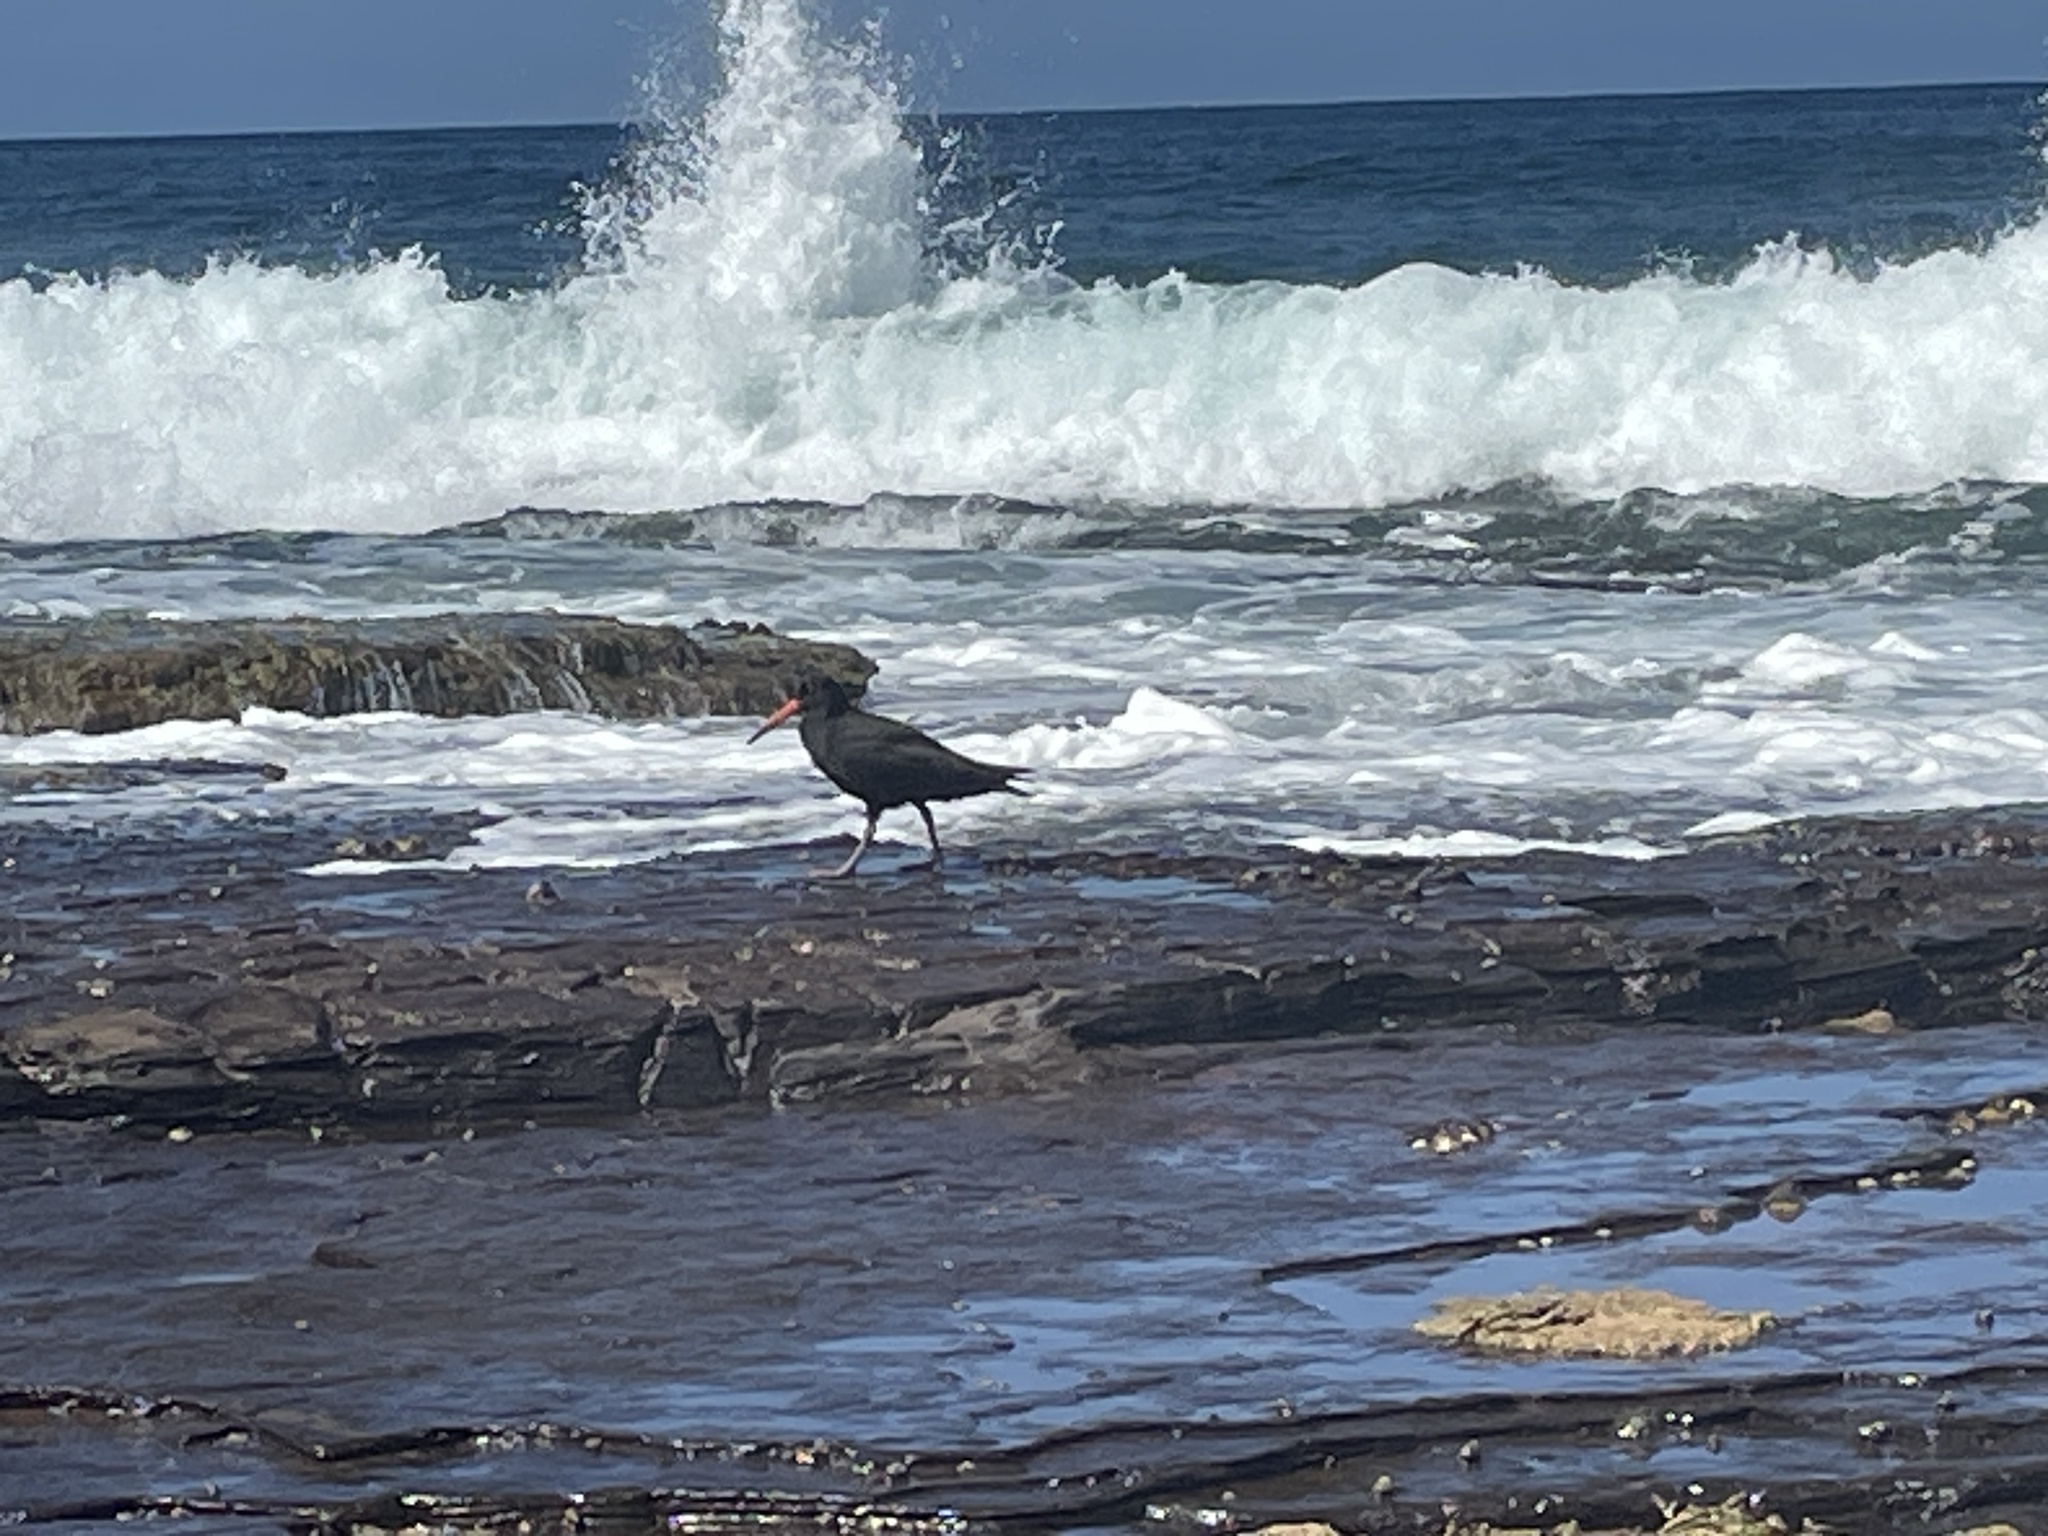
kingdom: Animalia
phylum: Chordata
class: Aves
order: Charadriiformes
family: Haematopodidae
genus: Haematopus
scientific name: Haematopus fuliginosus
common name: Sooty oystercatcher
